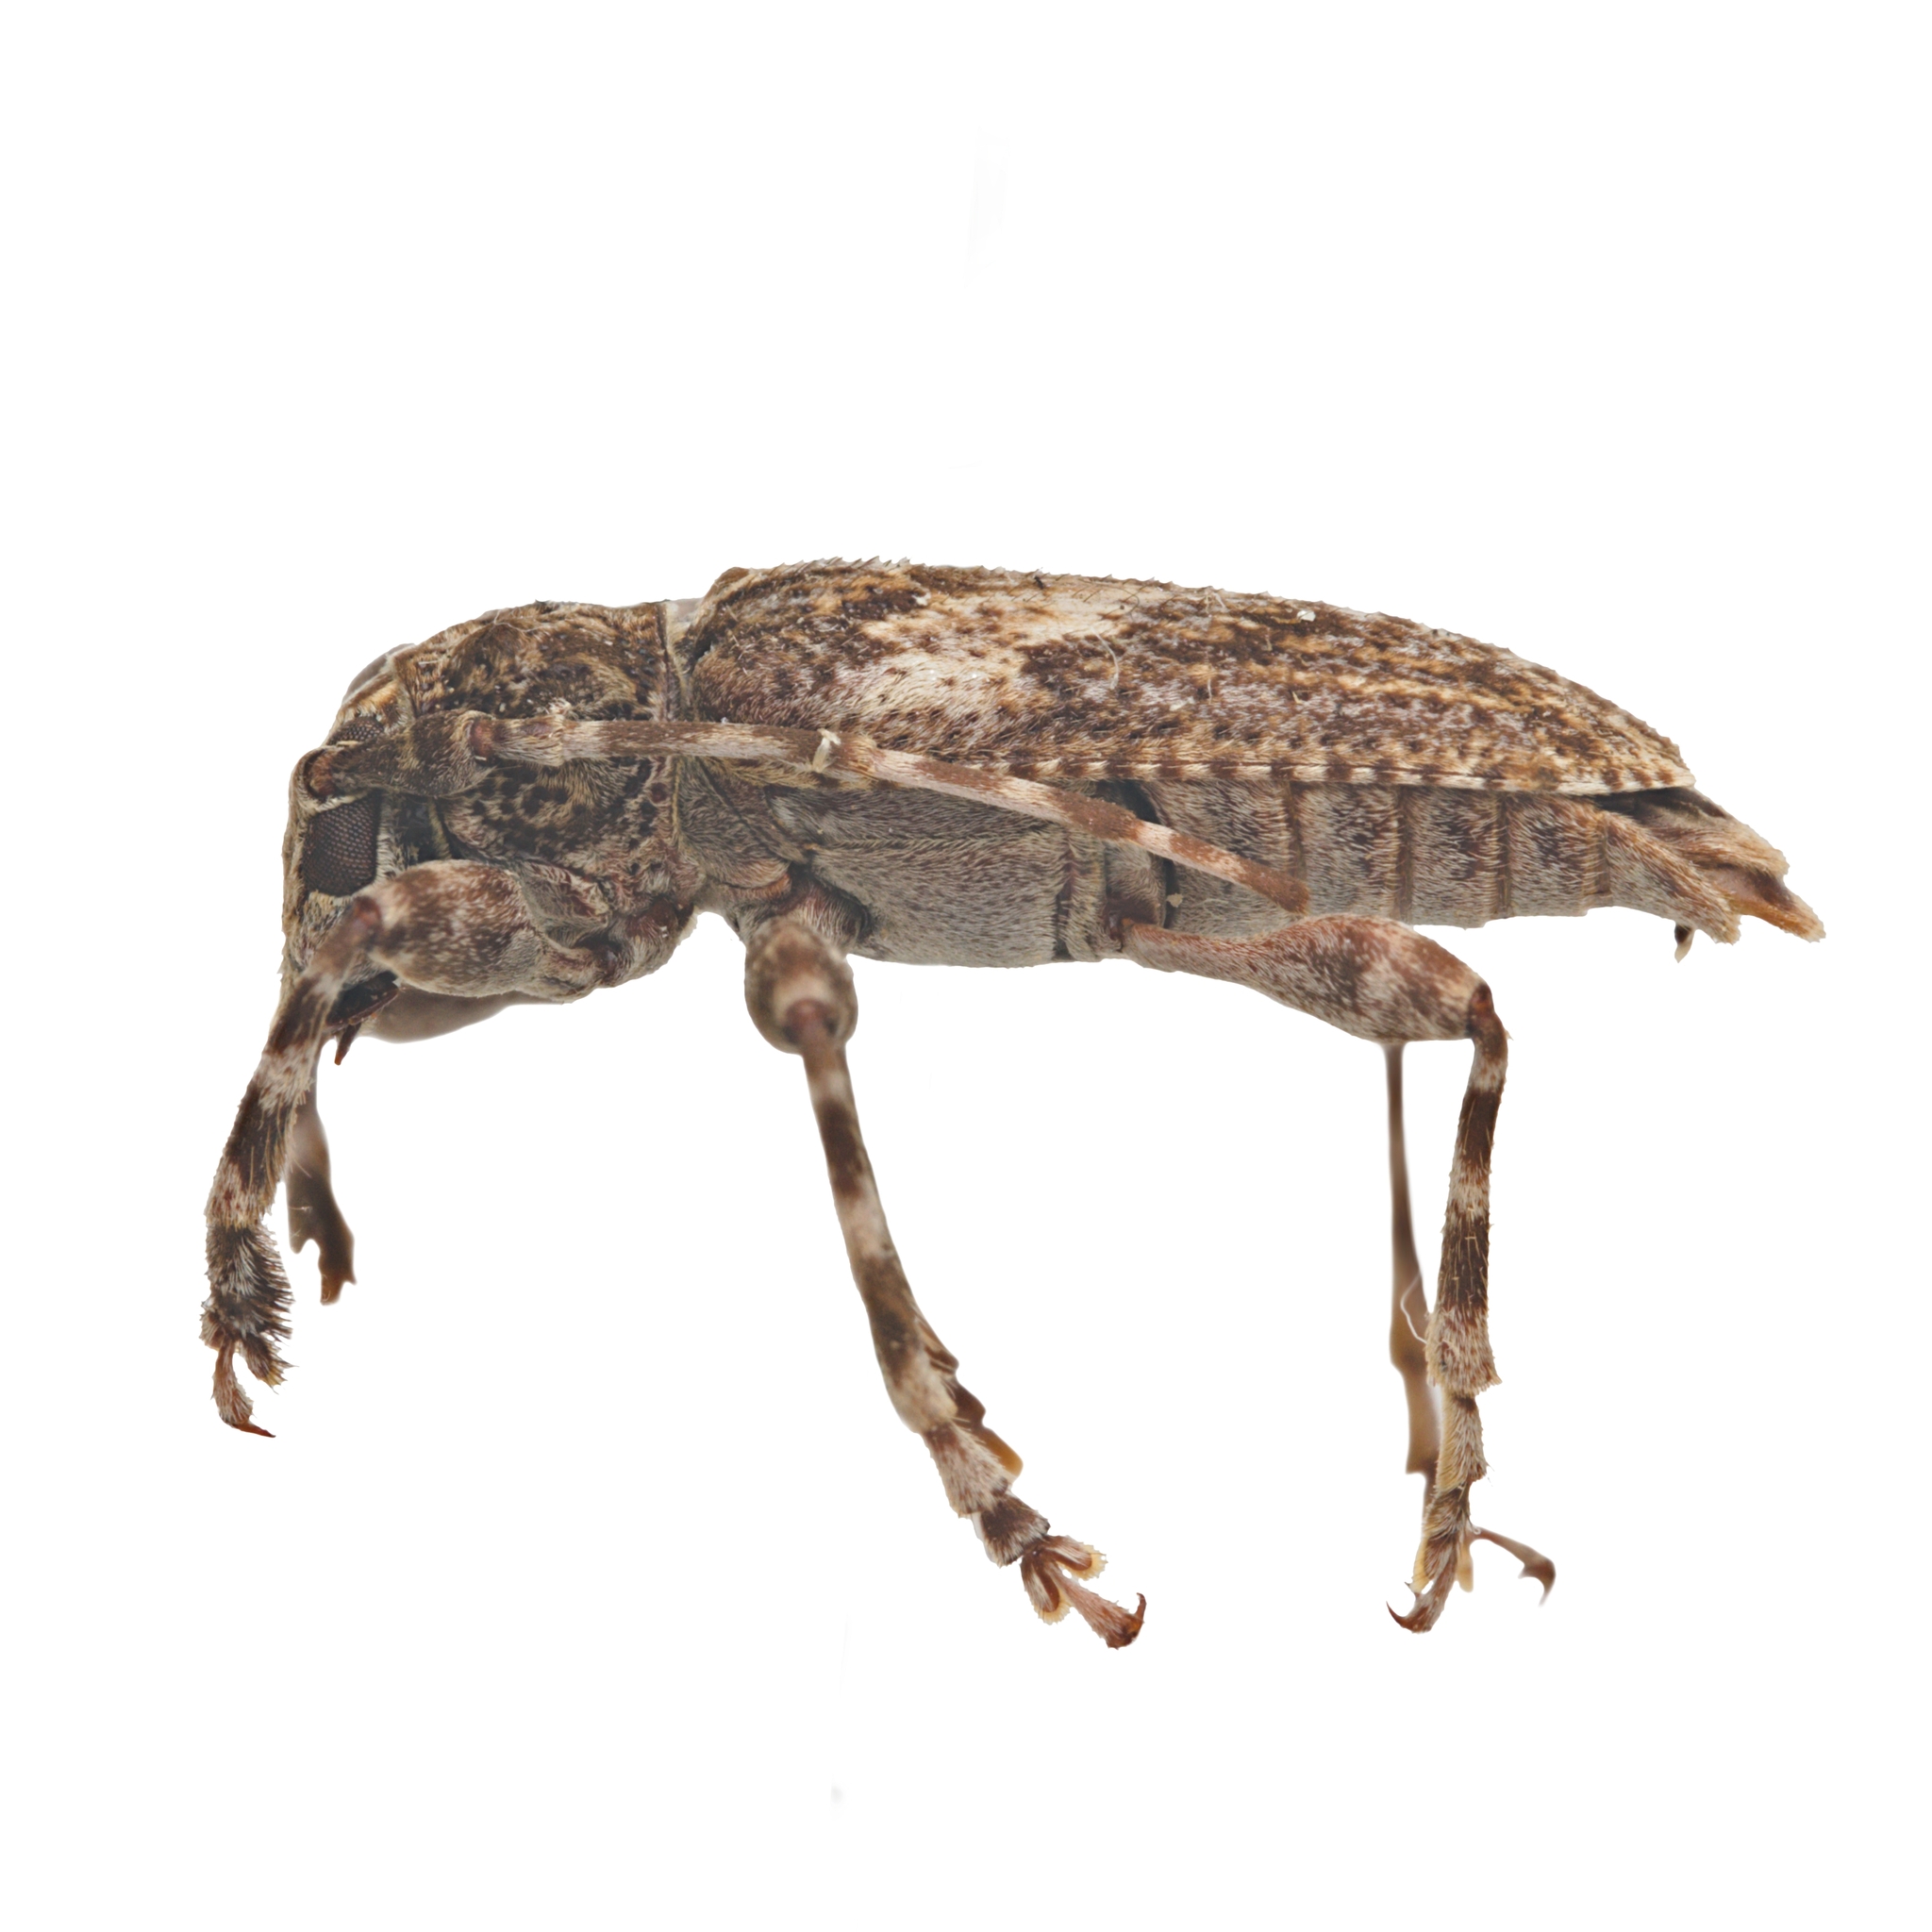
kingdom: Animalia
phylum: Arthropoda
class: Insecta
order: Coleoptera
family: Cerambycidae
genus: Aegomorphus
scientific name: Aegomorphus arizonicus
